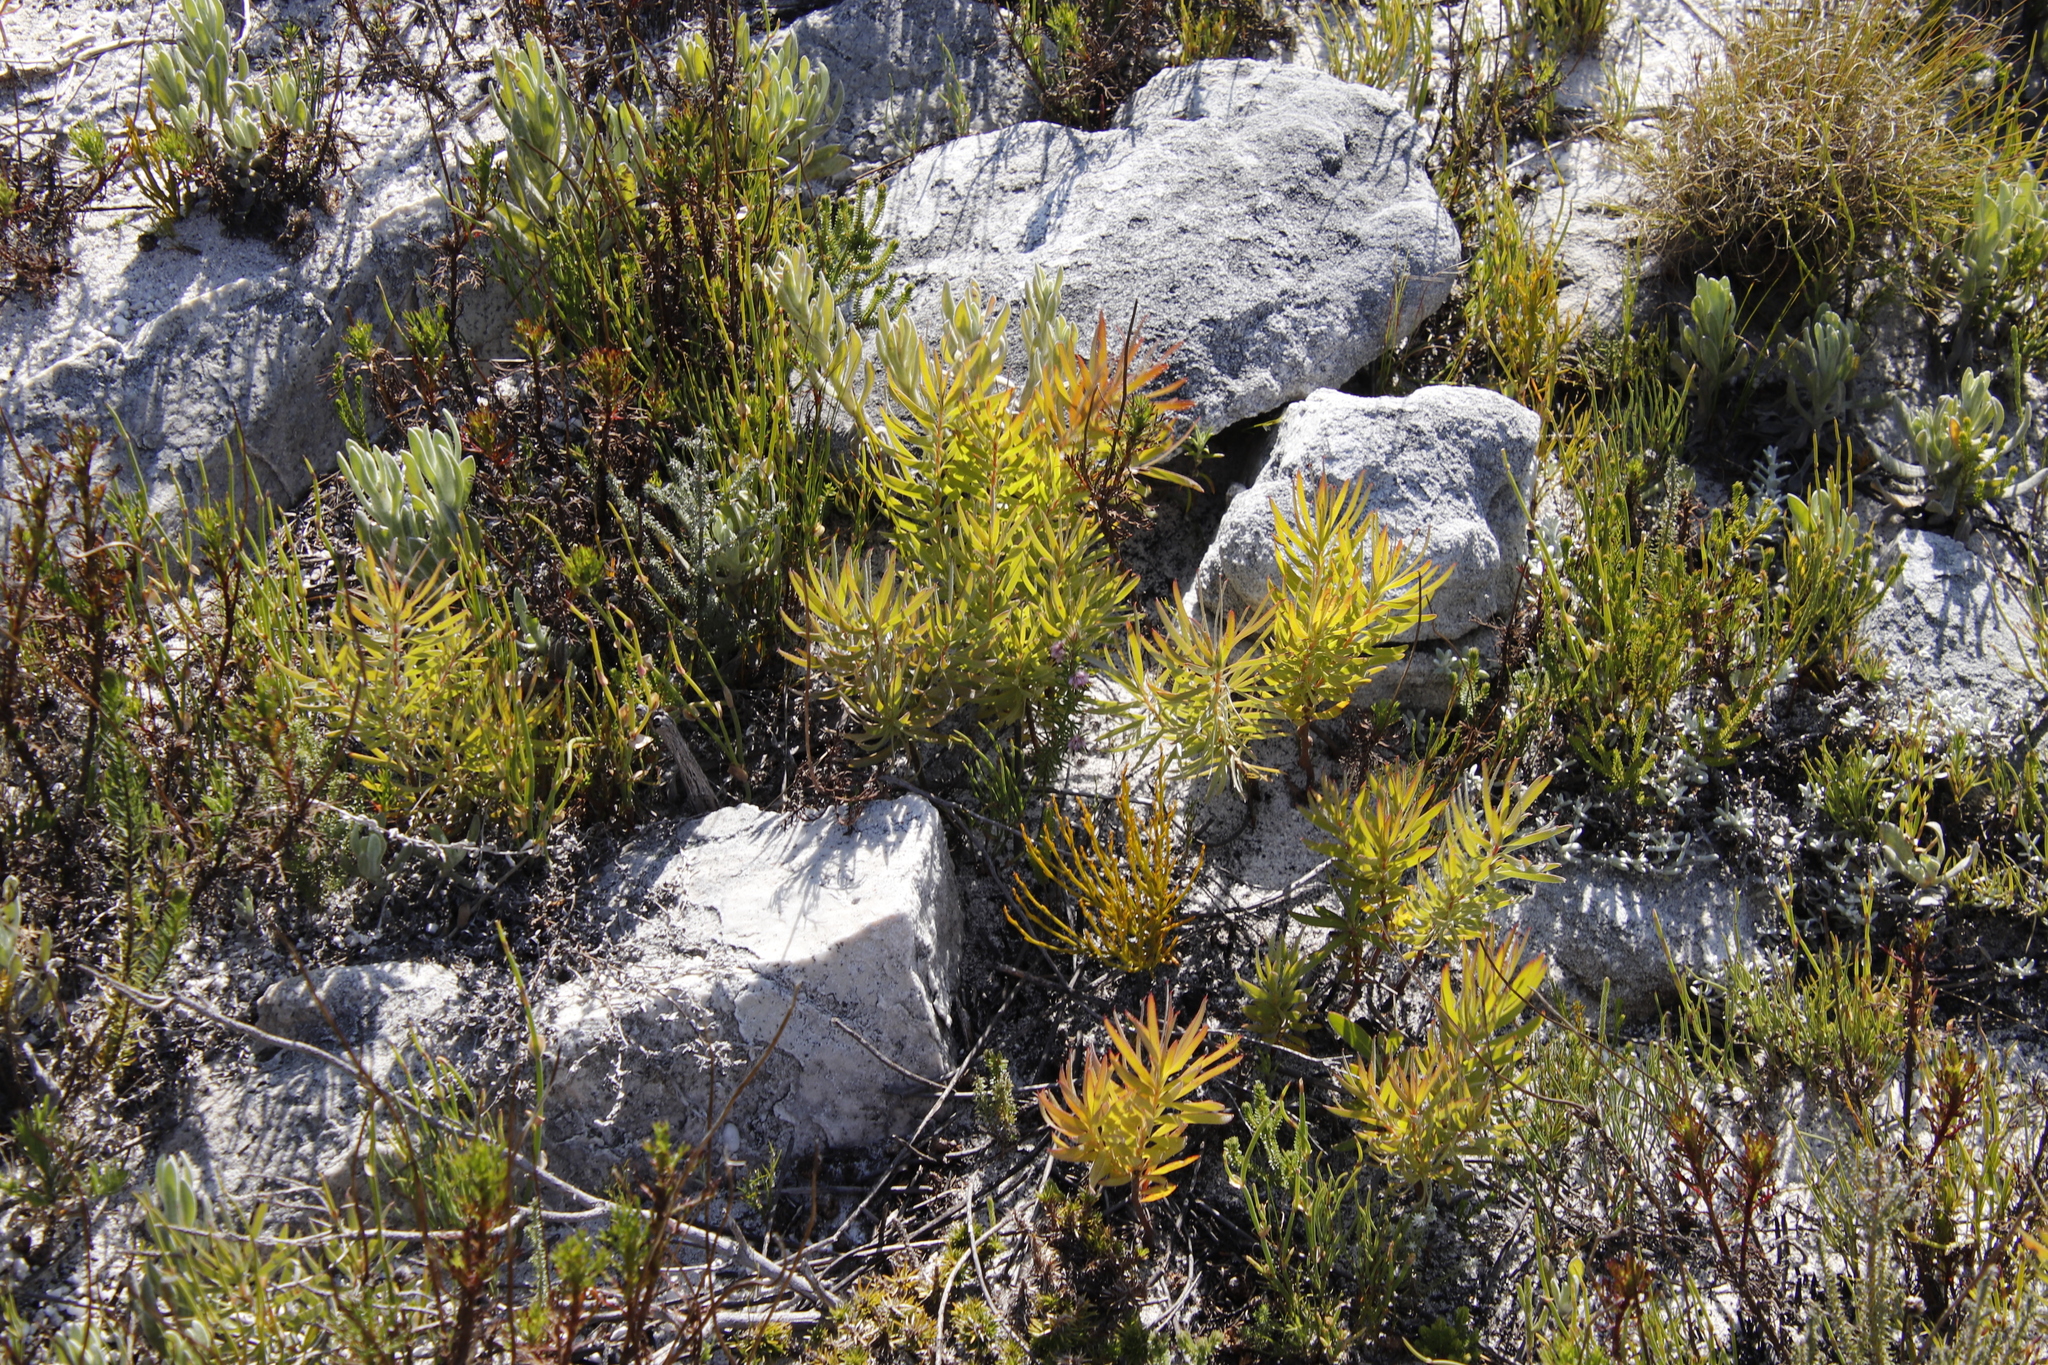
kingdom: Plantae
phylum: Tracheophyta
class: Magnoliopsida
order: Proteales
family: Proteaceae
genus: Leucadendron
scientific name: Leucadendron xanthoconus
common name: Sickle-leaf conebush
